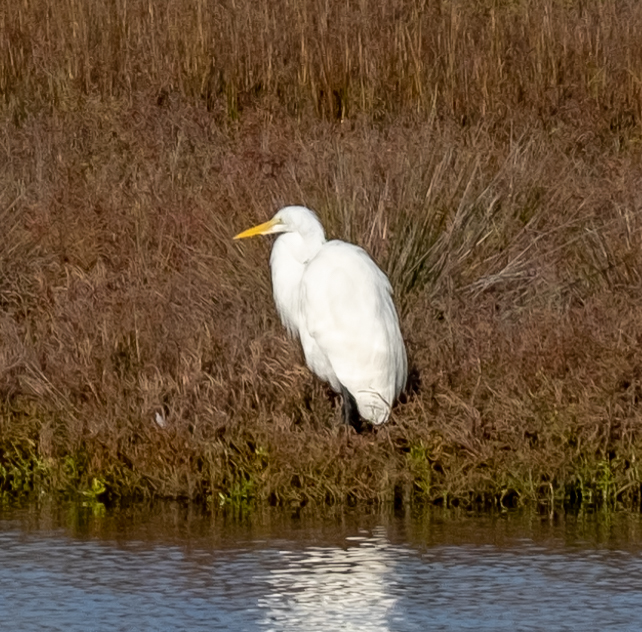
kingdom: Animalia
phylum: Chordata
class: Aves
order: Pelecaniformes
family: Ardeidae
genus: Ardea
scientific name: Ardea alba
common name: Great egret
